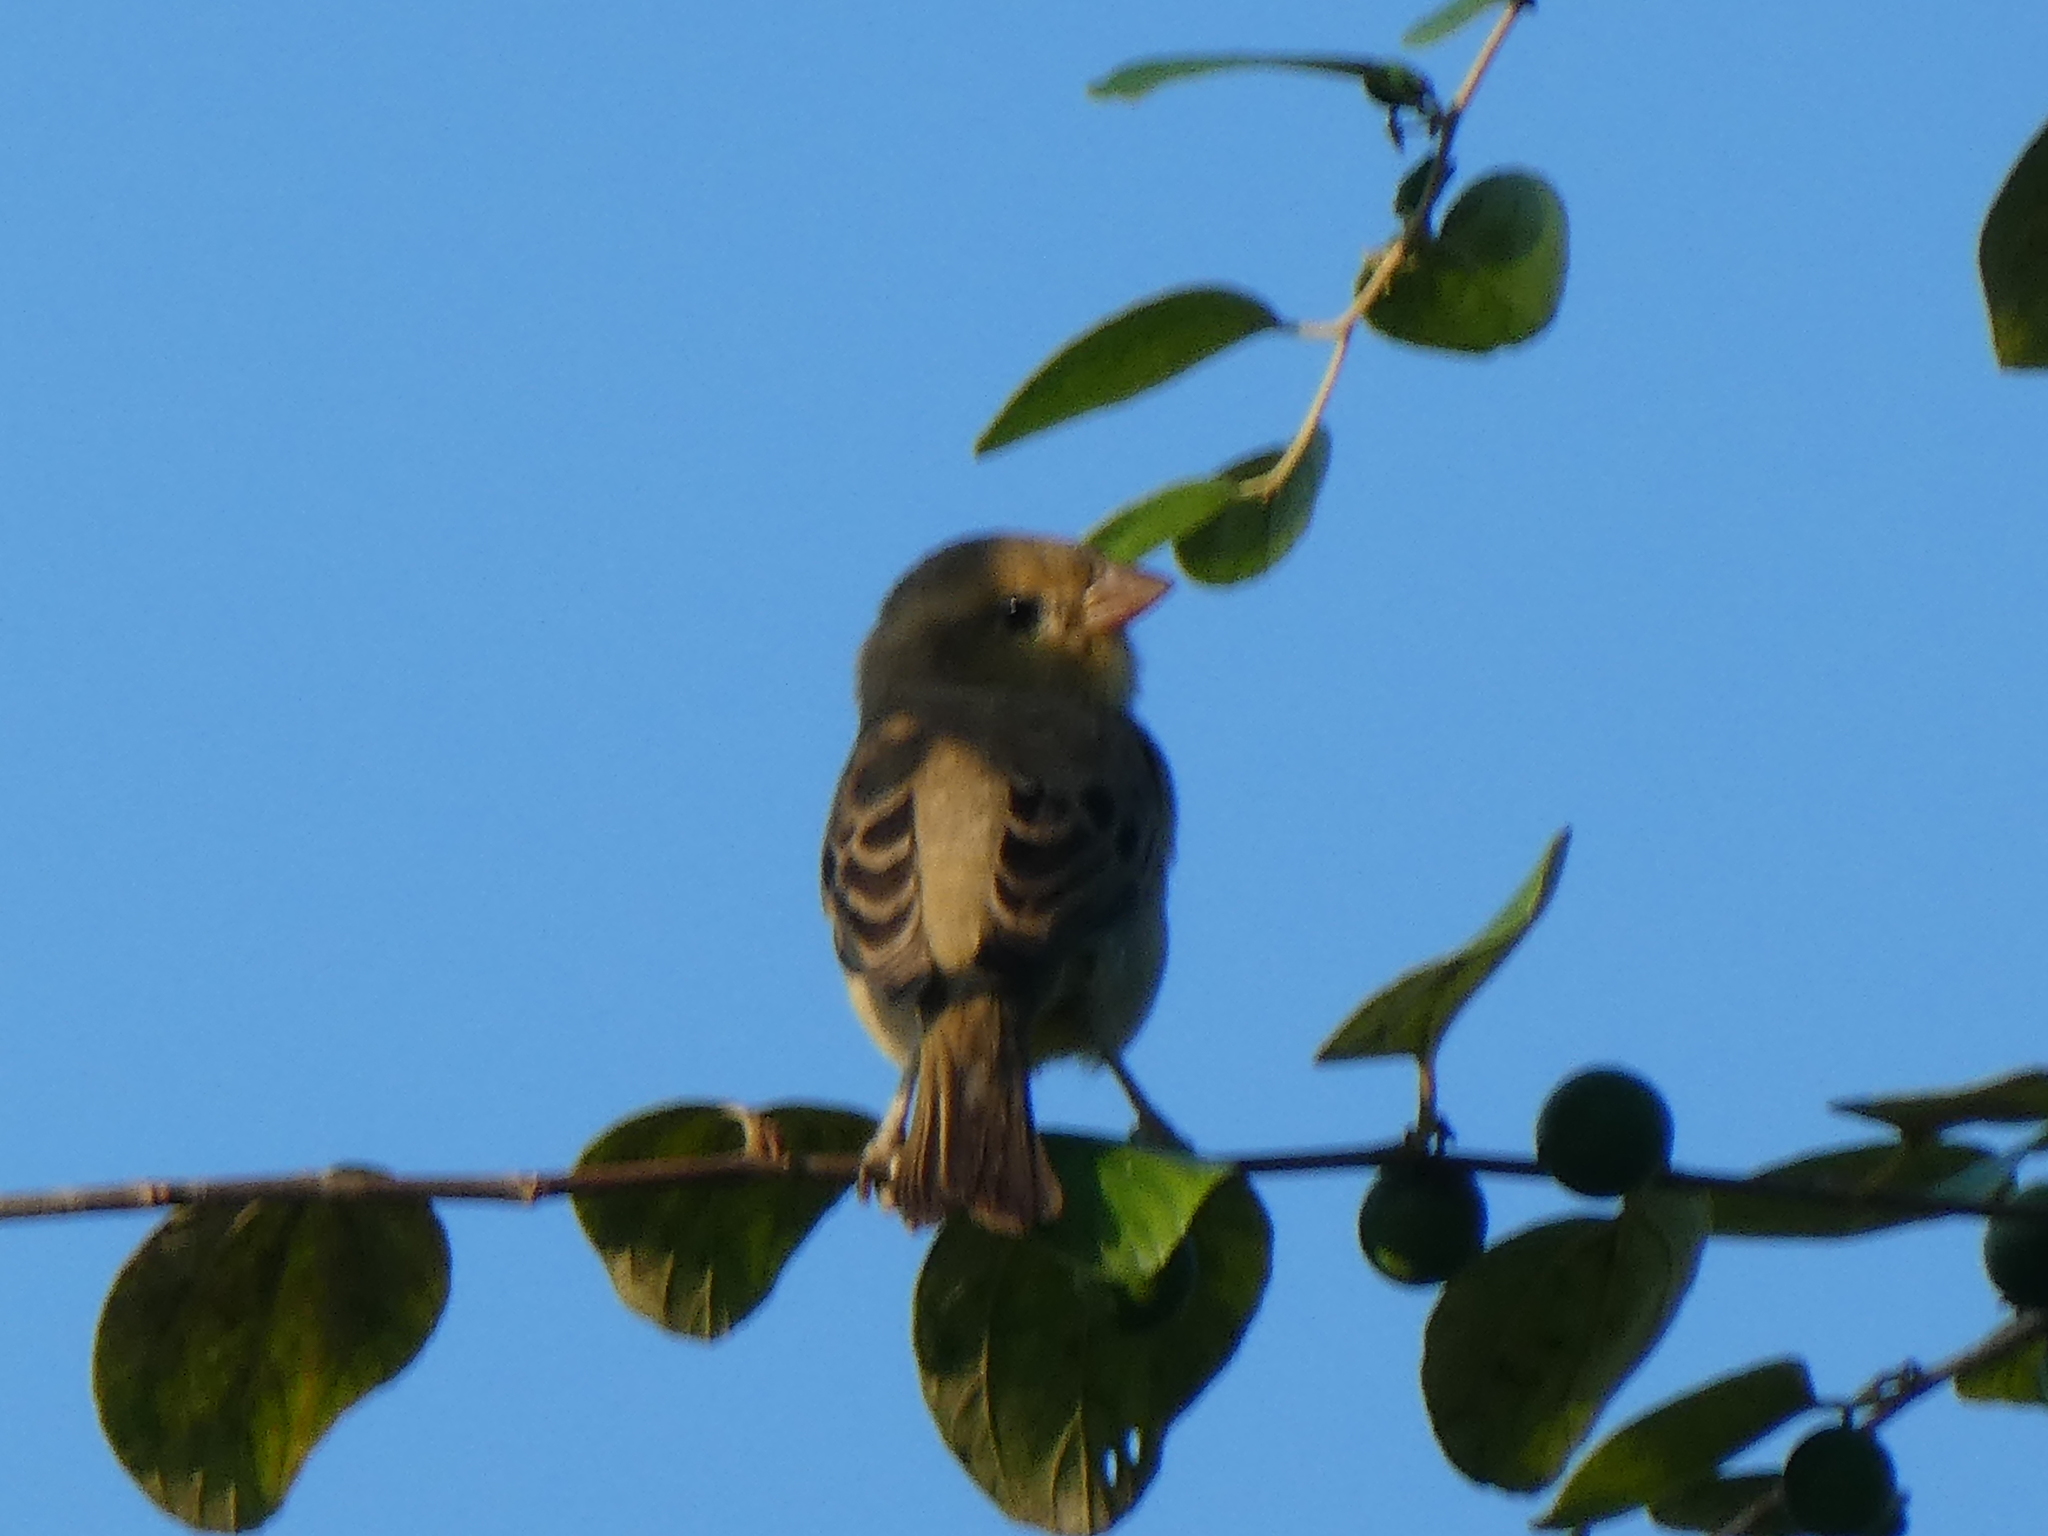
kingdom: Animalia
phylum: Chordata
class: Aves
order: Passeriformes
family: Passeridae
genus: Passer
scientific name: Passer flaveolus
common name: Plain-backed sparrow
